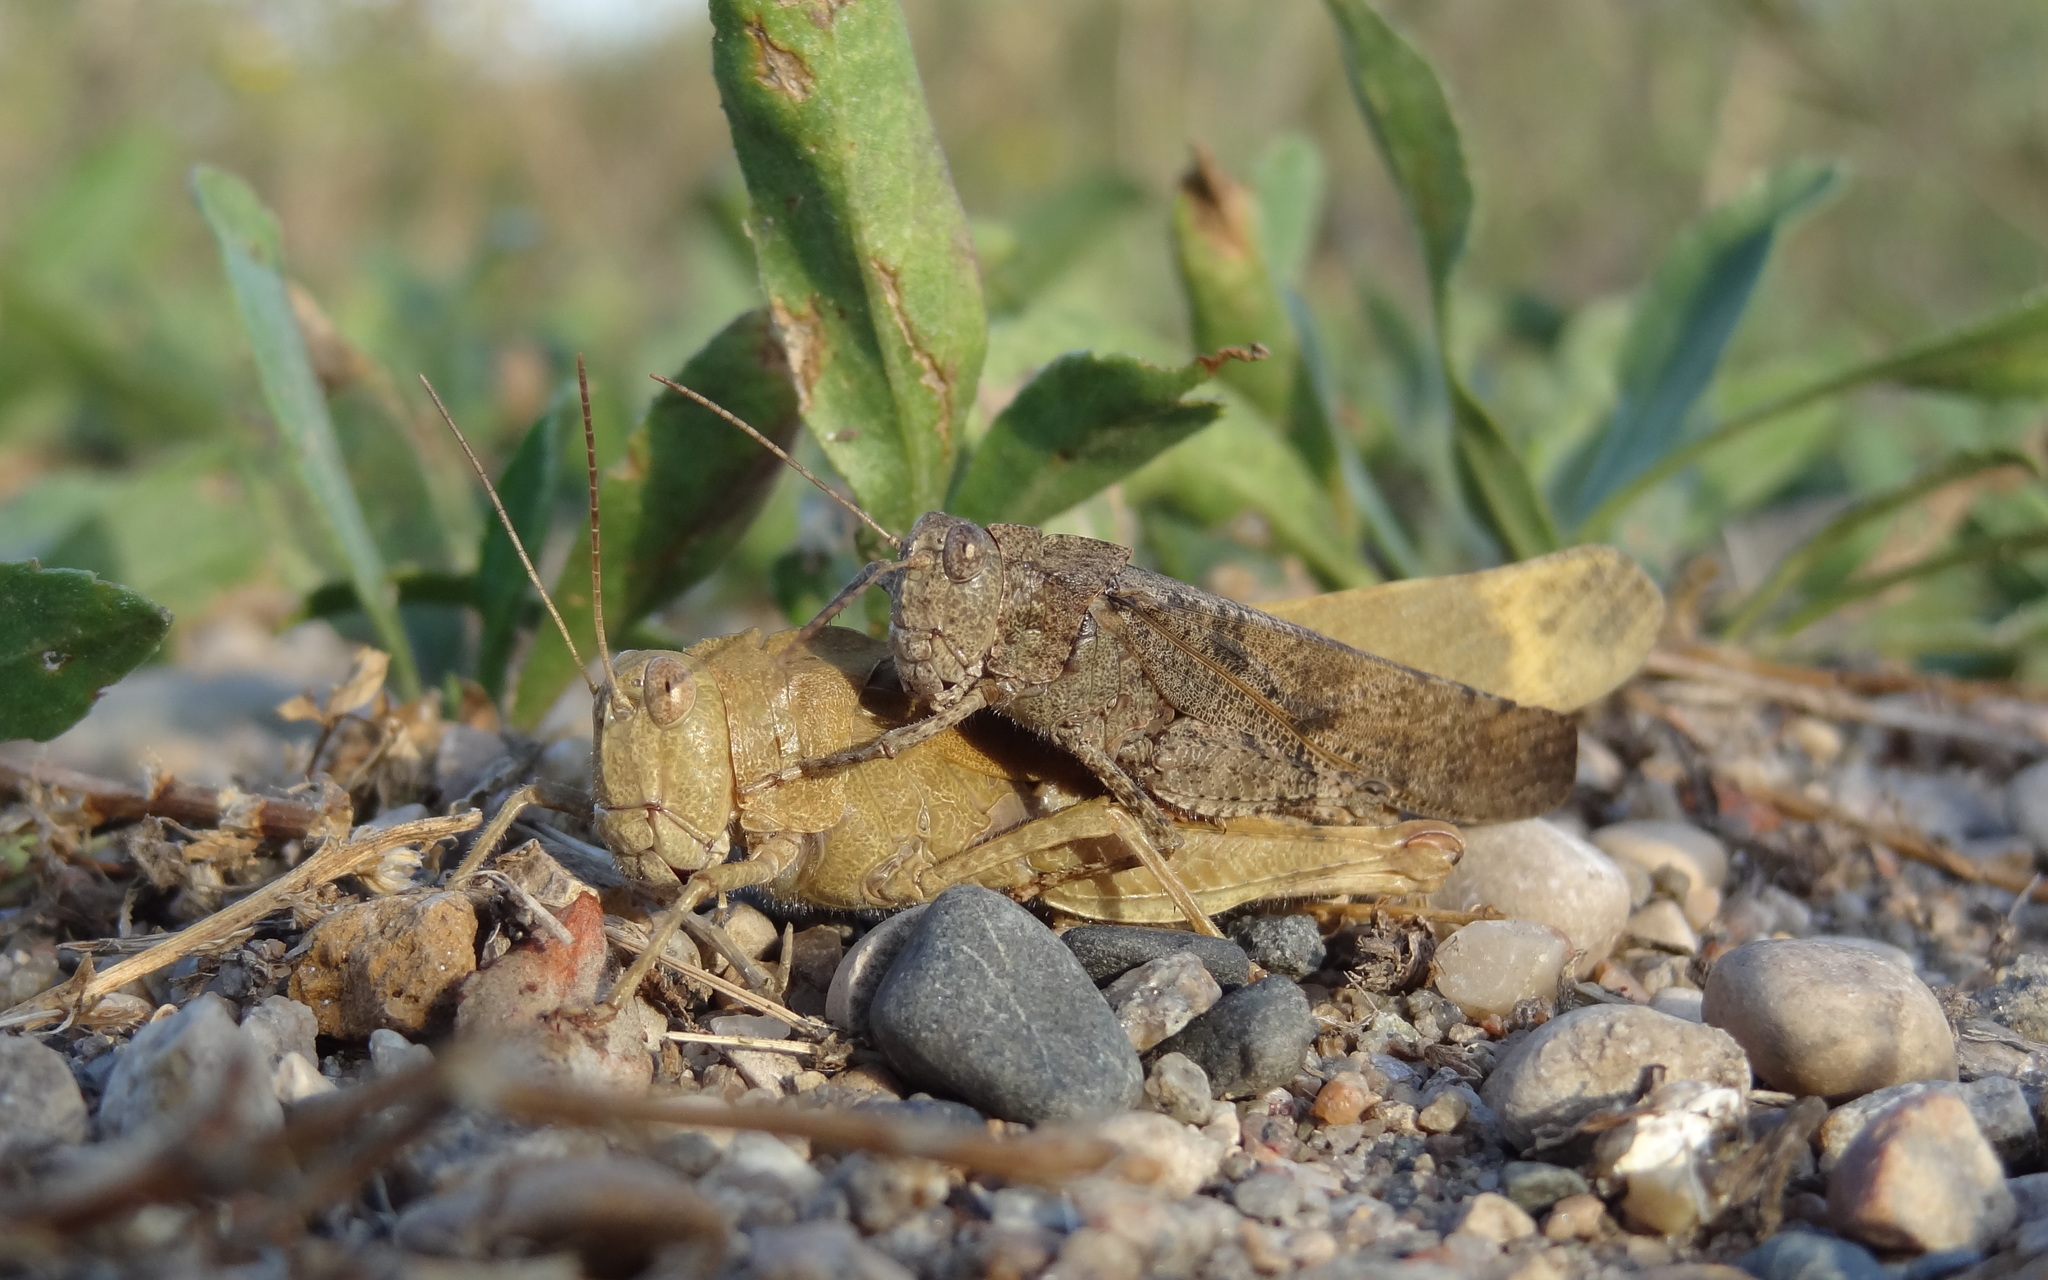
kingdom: Animalia
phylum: Arthropoda
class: Insecta
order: Orthoptera
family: Acrididae
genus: Dissosteira
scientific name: Dissosteira carolina
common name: Carolina grasshopper
